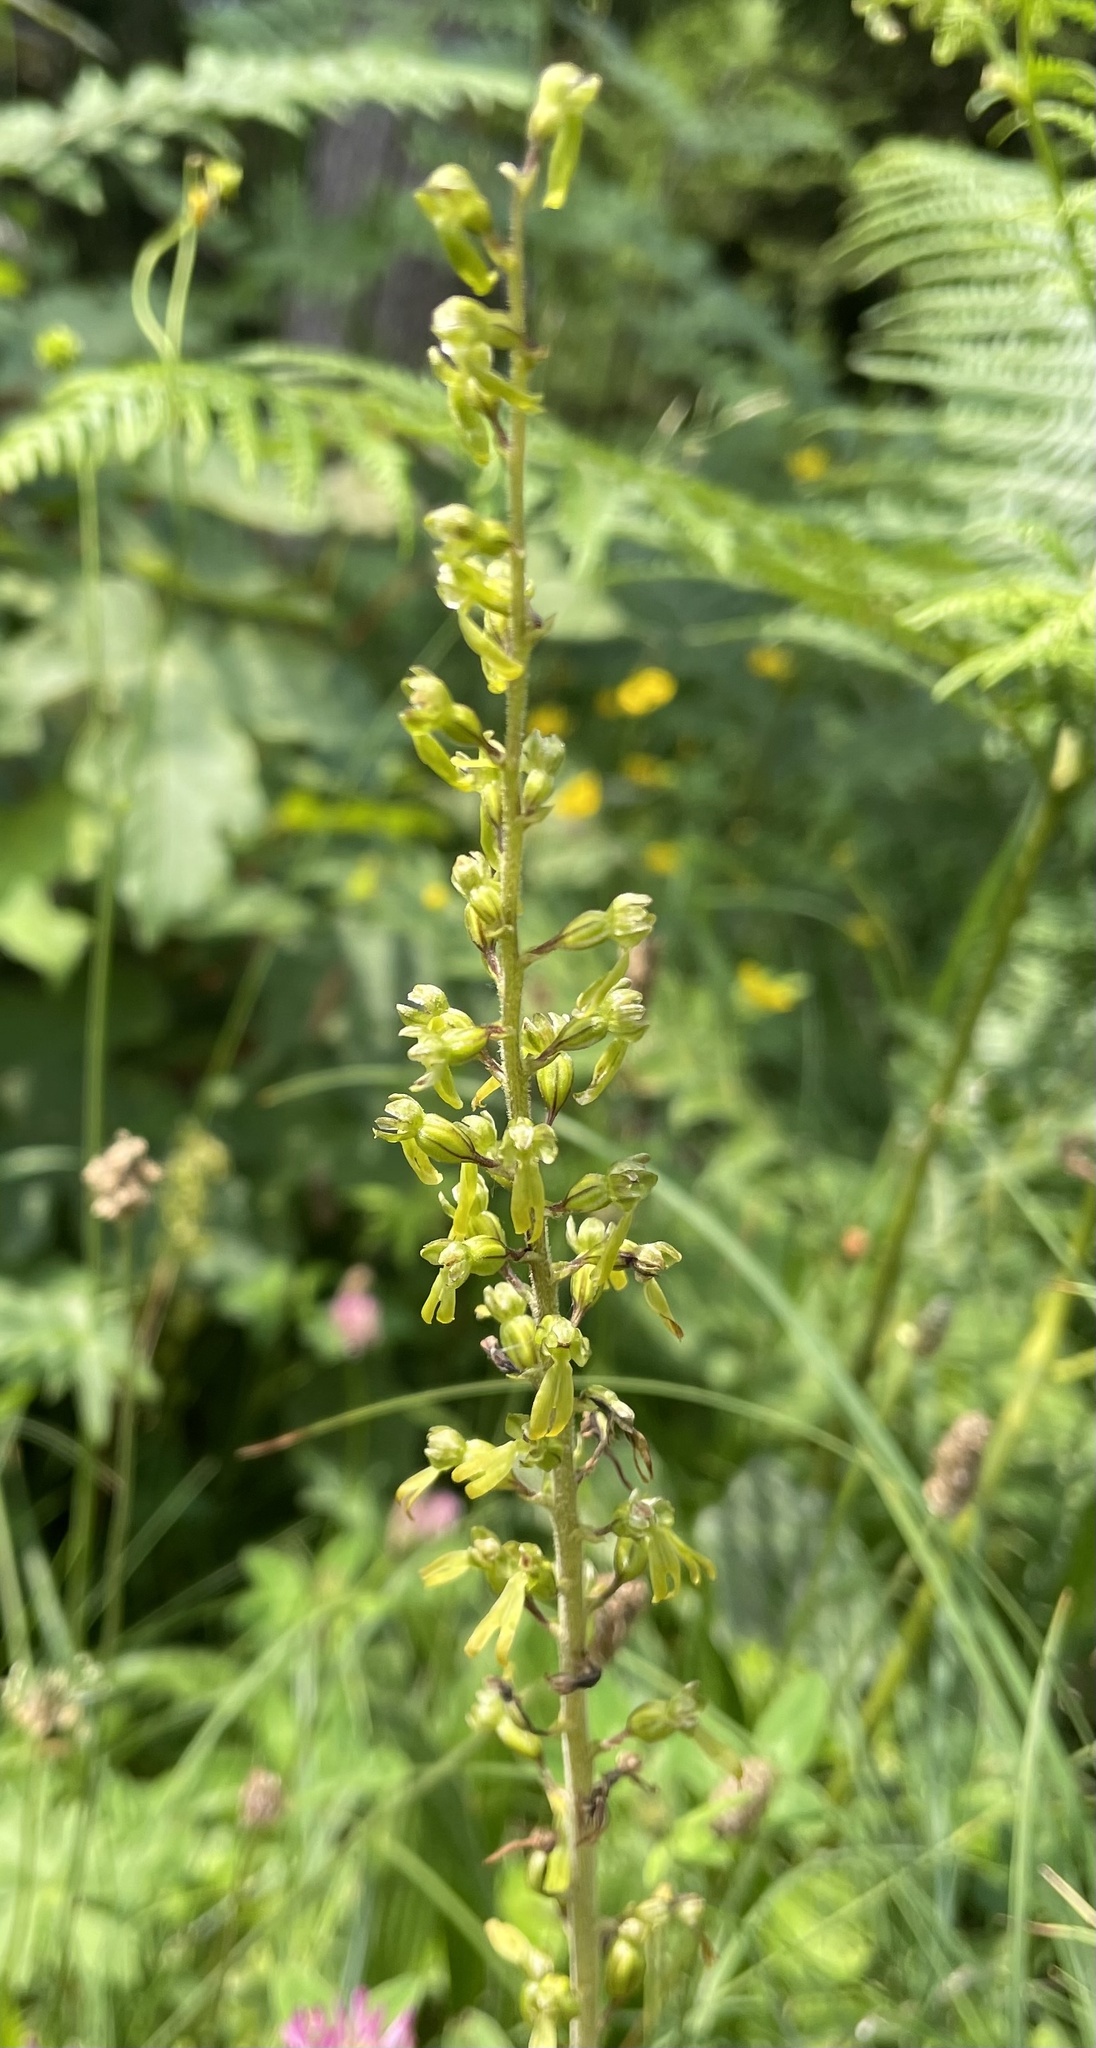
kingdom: Plantae
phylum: Tracheophyta
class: Liliopsida
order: Asparagales
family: Orchidaceae
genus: Neottia
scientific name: Neottia ovata
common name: Common twayblade
